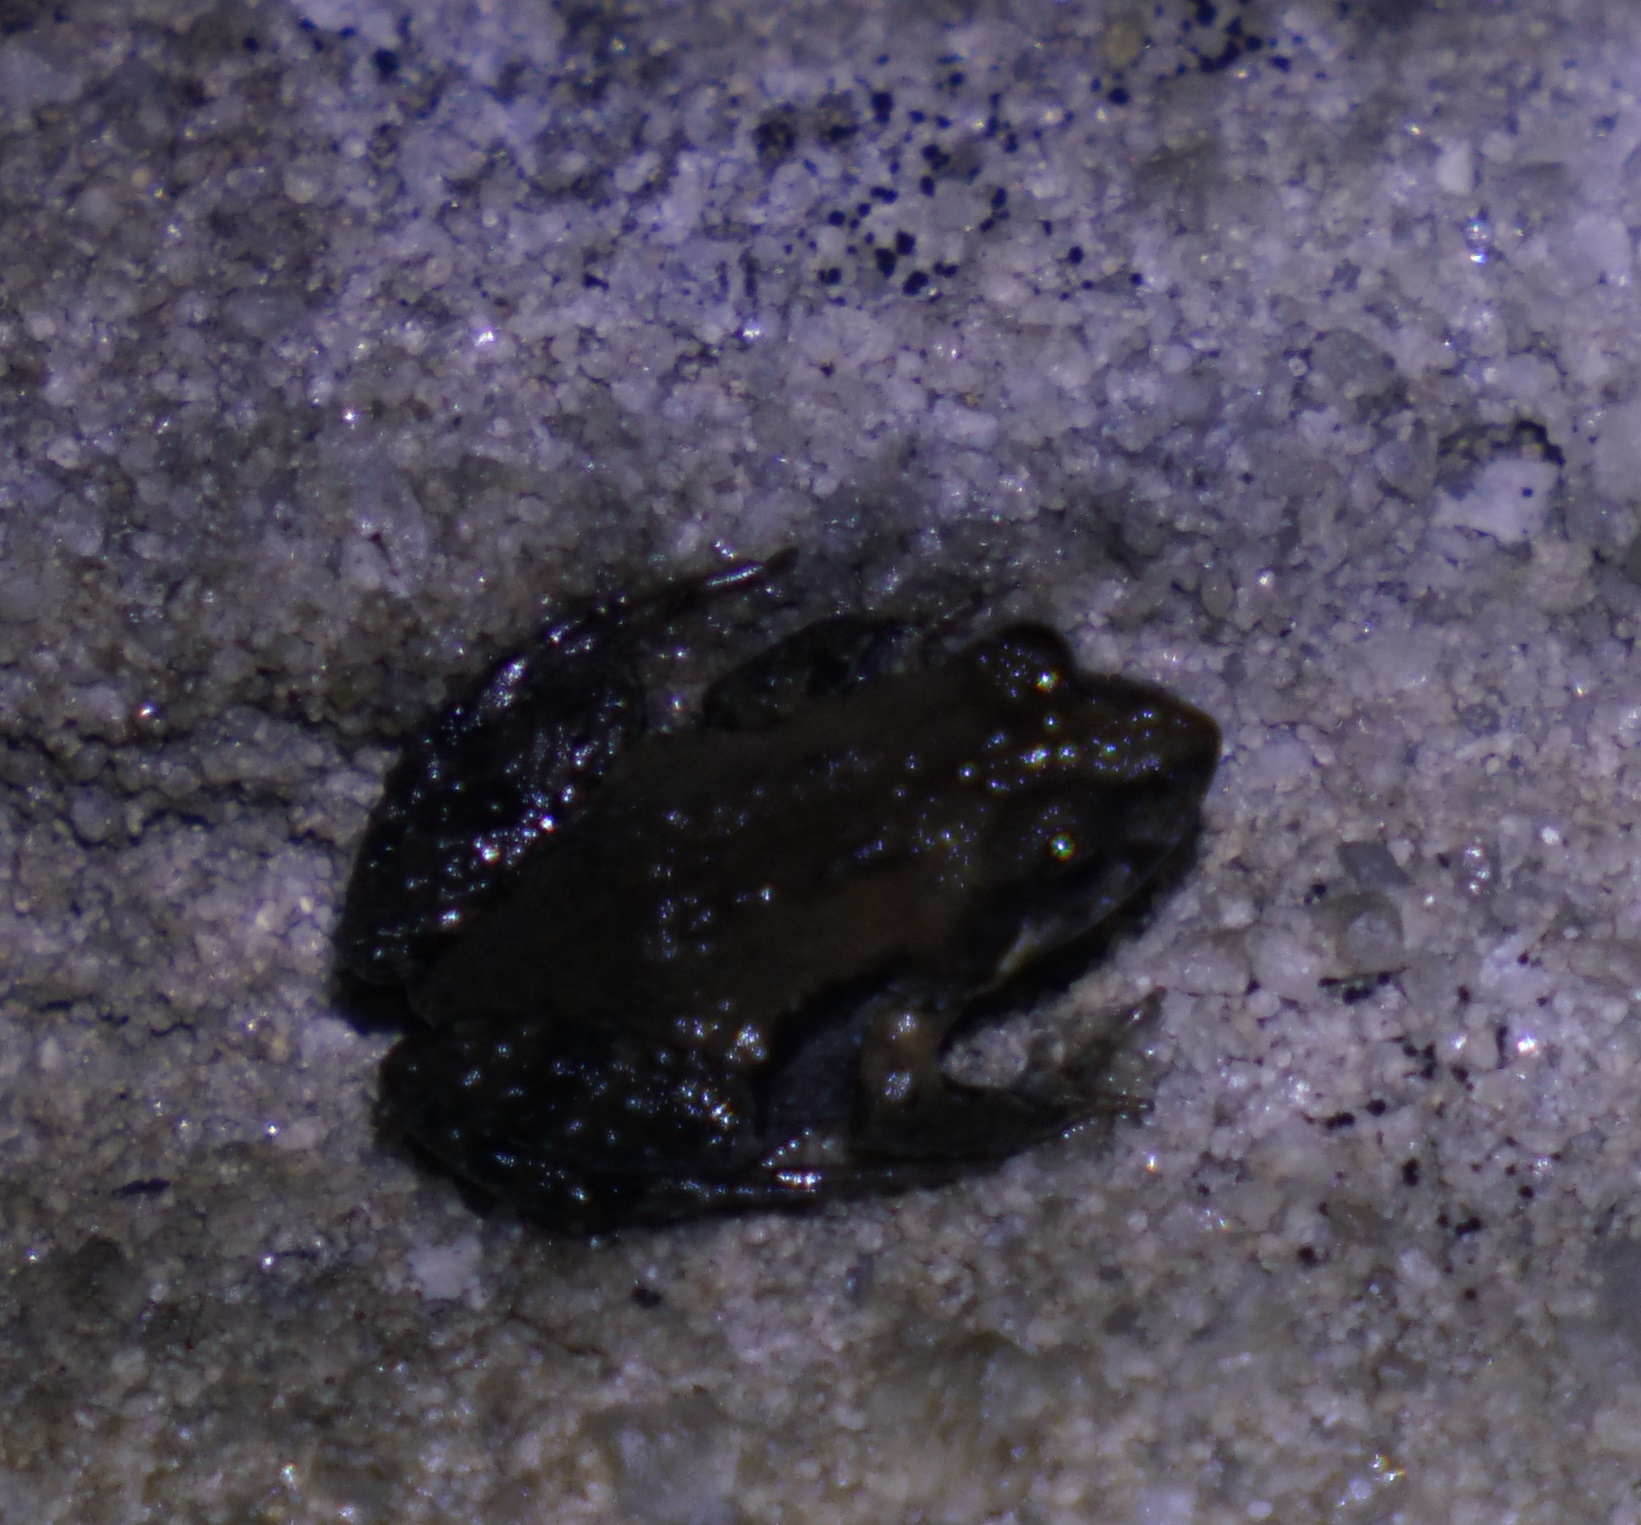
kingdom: Animalia
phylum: Chordata
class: Amphibia
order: Anura
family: Myobatrachidae
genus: Crinia
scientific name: Crinia signifera
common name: Brown froglet
